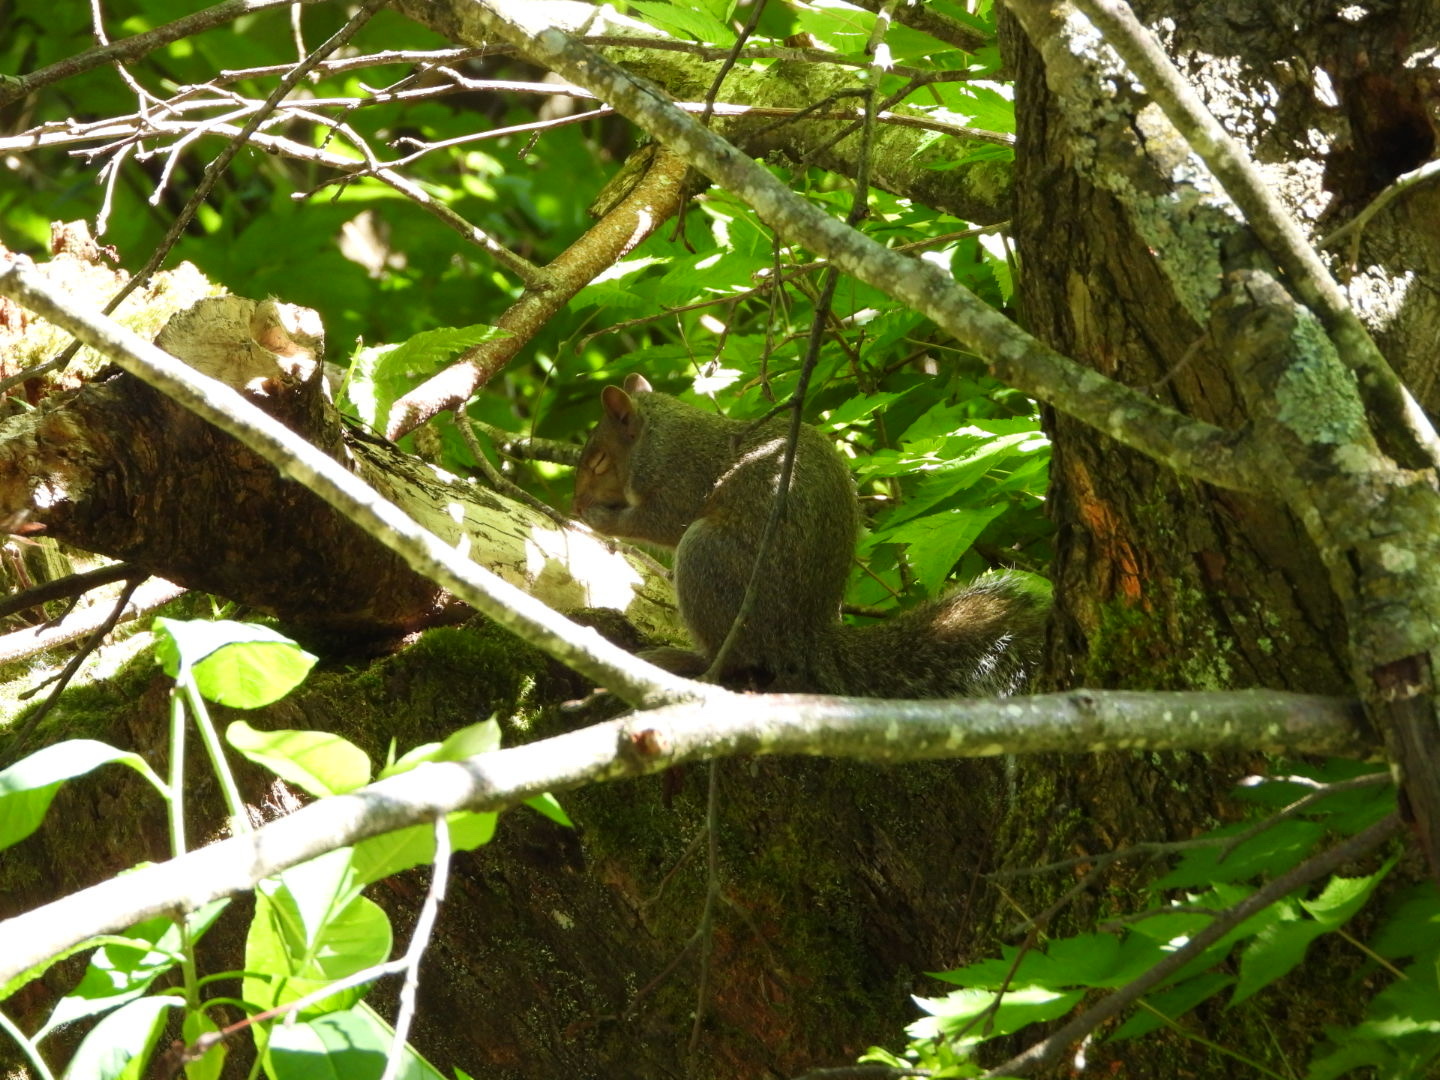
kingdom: Animalia
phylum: Chordata
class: Mammalia
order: Rodentia
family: Sciuridae
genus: Sciurus
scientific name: Sciurus carolinensis
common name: Eastern gray squirrel
